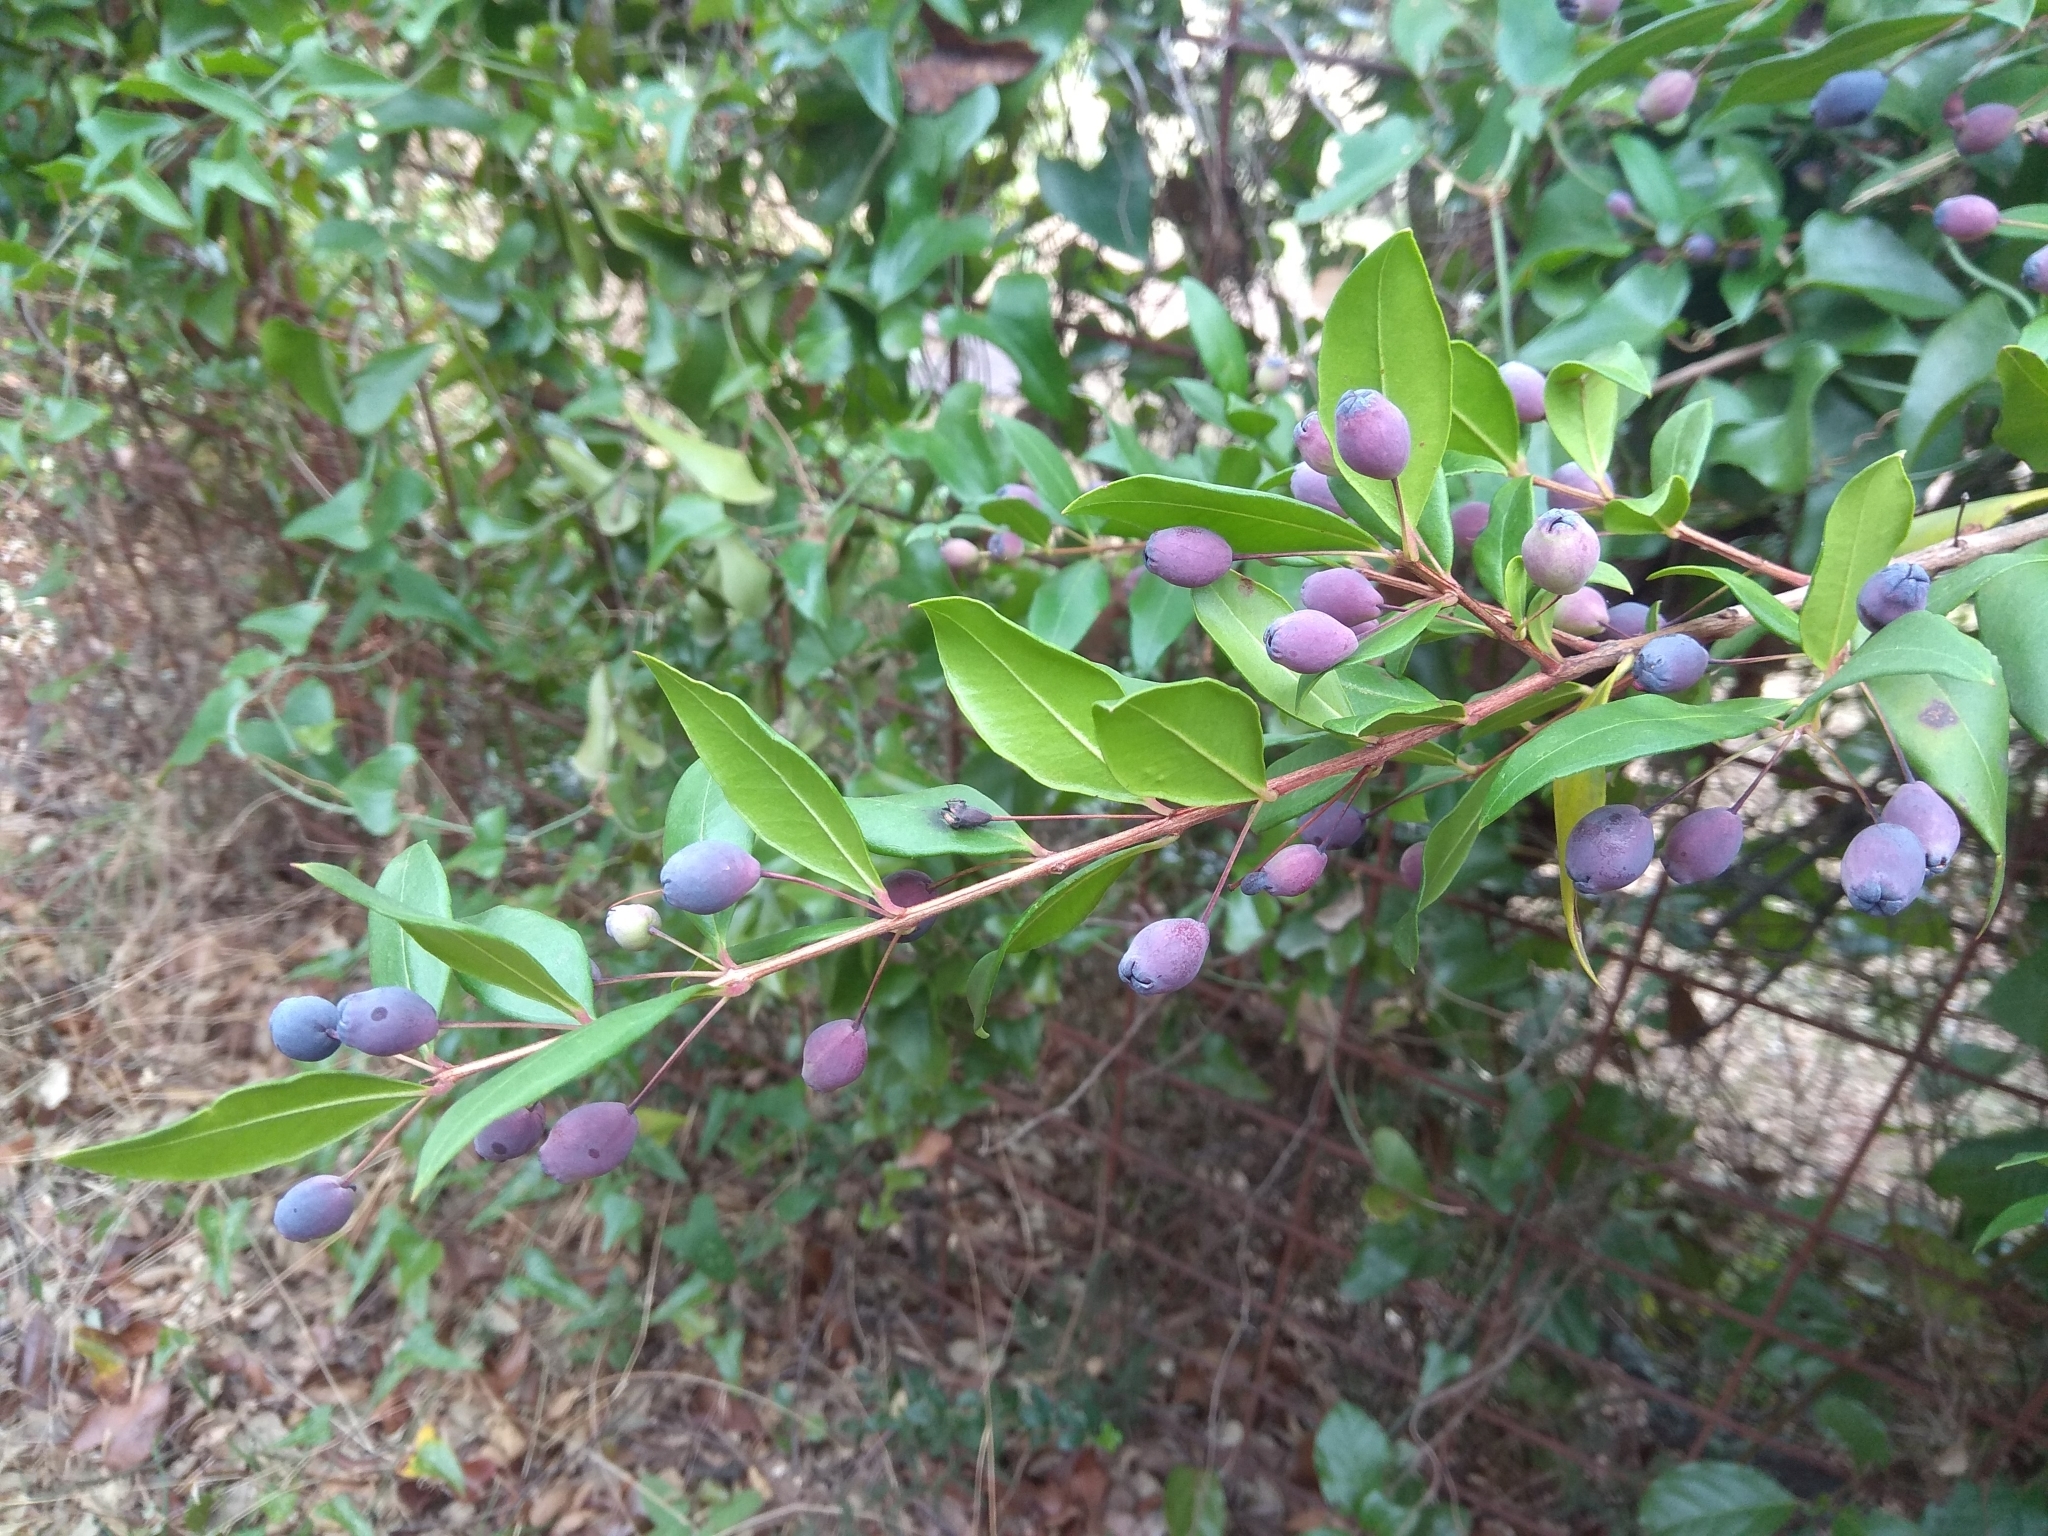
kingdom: Plantae
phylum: Tracheophyta
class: Magnoliopsida
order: Myrtales
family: Myrtaceae
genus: Myrtus
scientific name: Myrtus communis
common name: Myrtle
